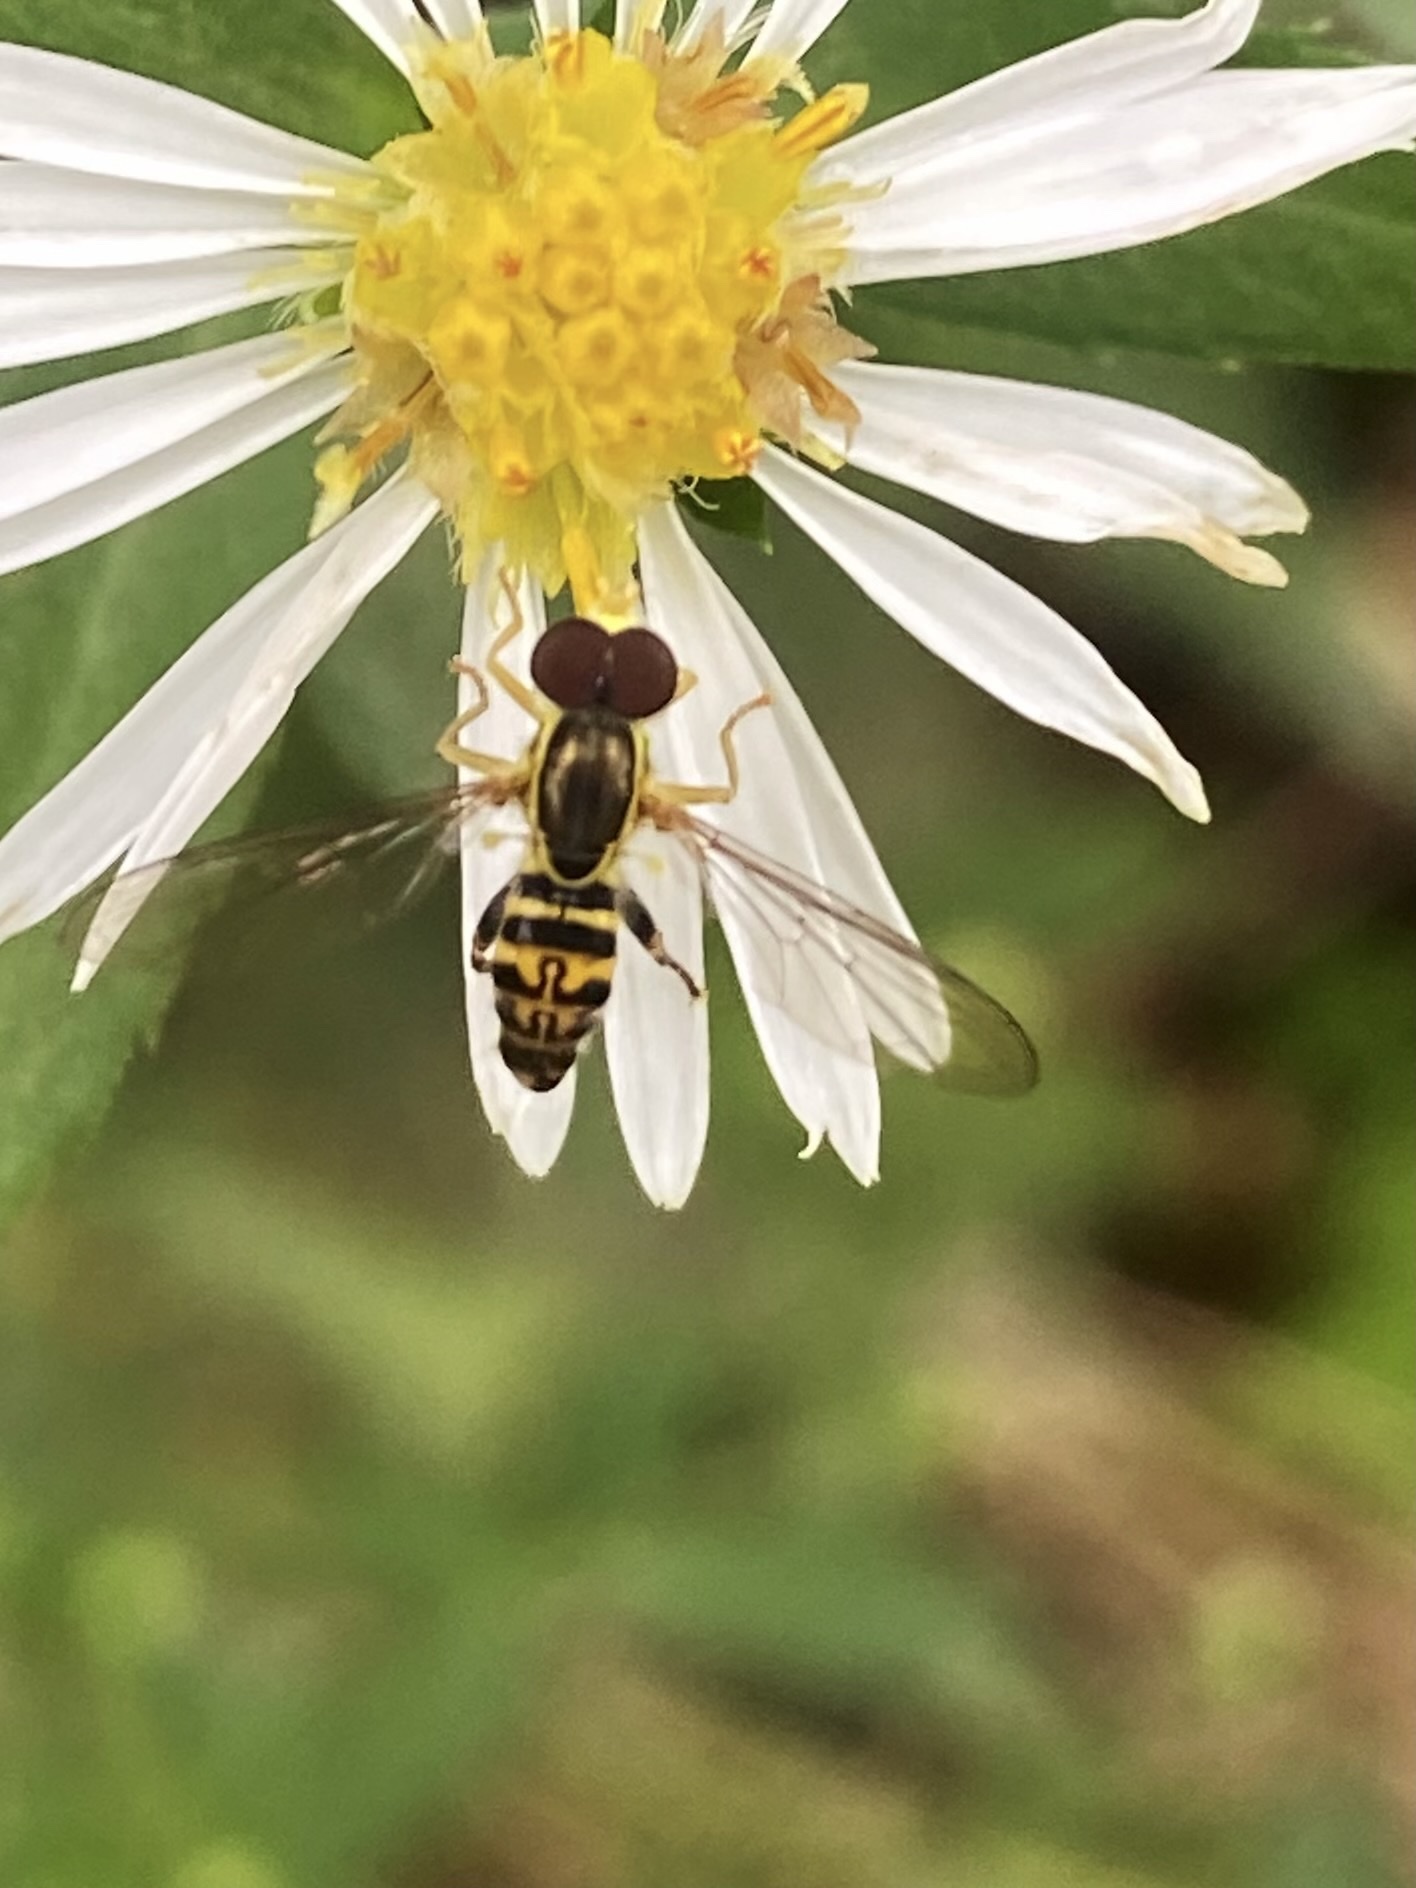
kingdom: Animalia
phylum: Arthropoda
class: Insecta
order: Diptera
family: Syrphidae
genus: Toxomerus
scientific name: Toxomerus geminatus
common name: Eastern calligrapher
